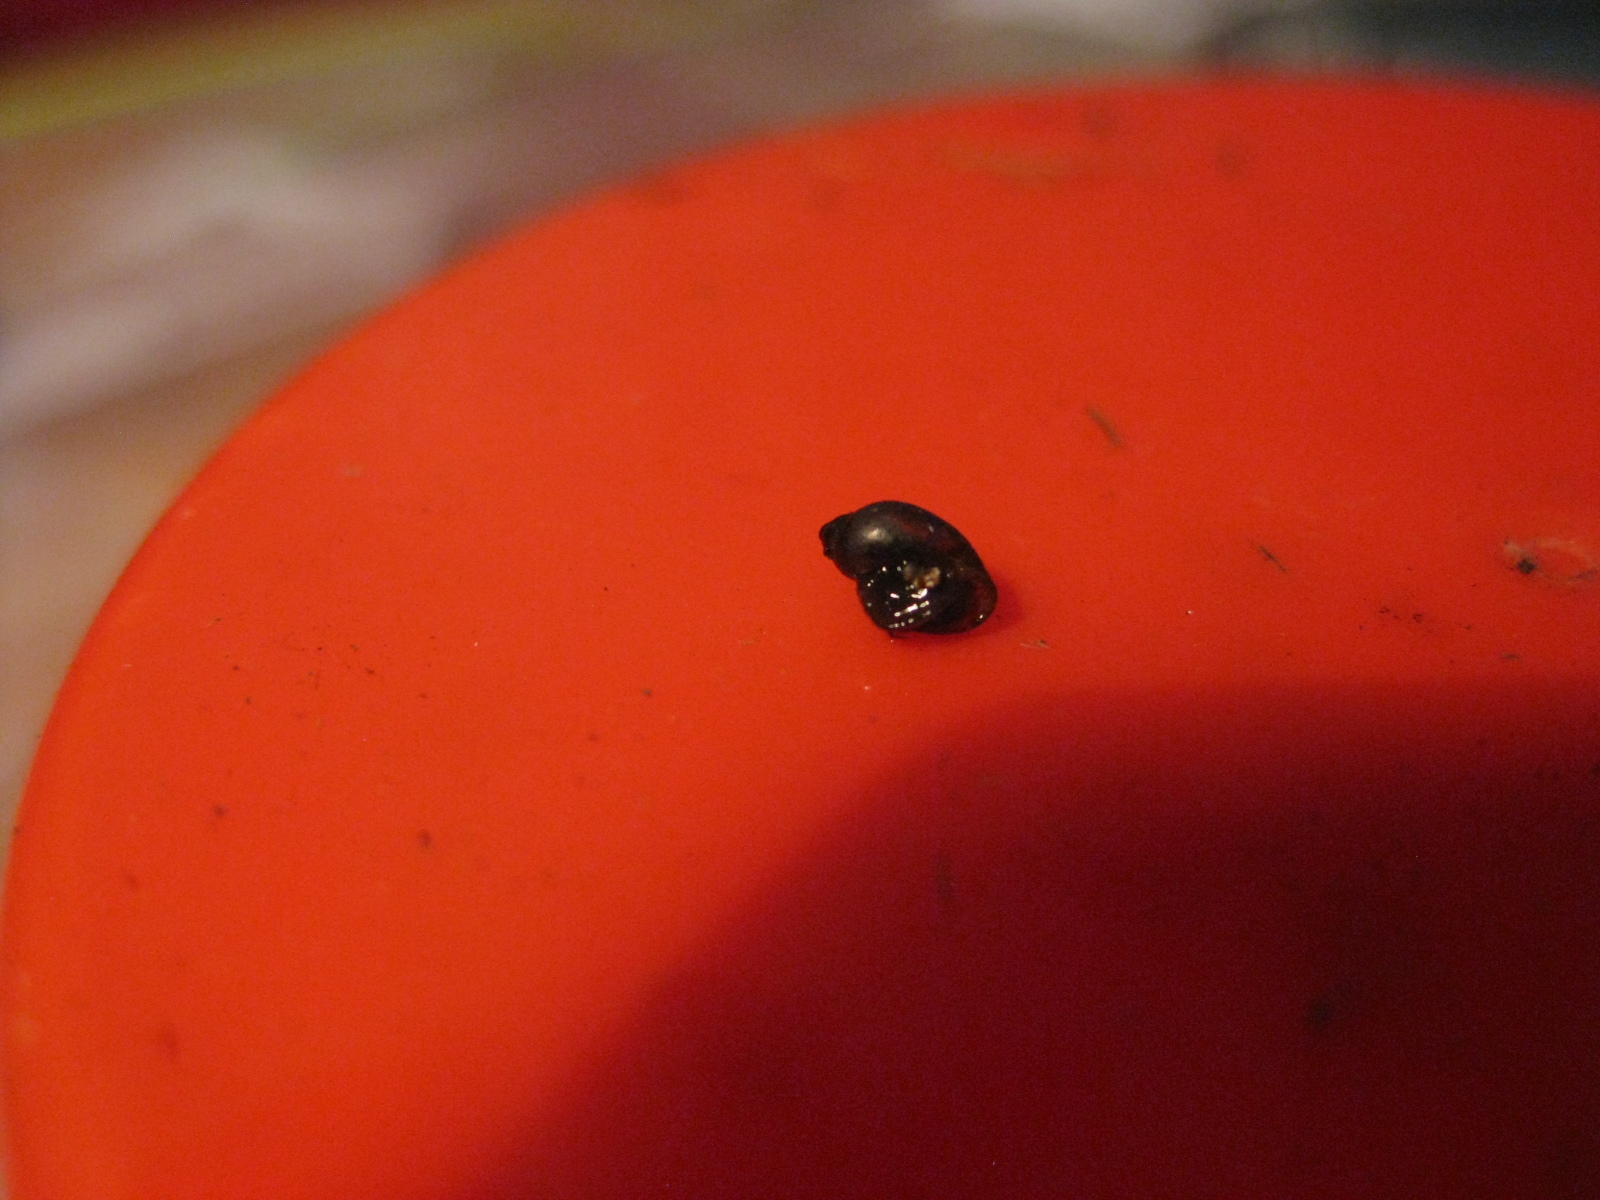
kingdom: Animalia
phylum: Mollusca
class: Gastropoda
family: Physidae
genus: Physella
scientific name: Physella acuta
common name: European physa
